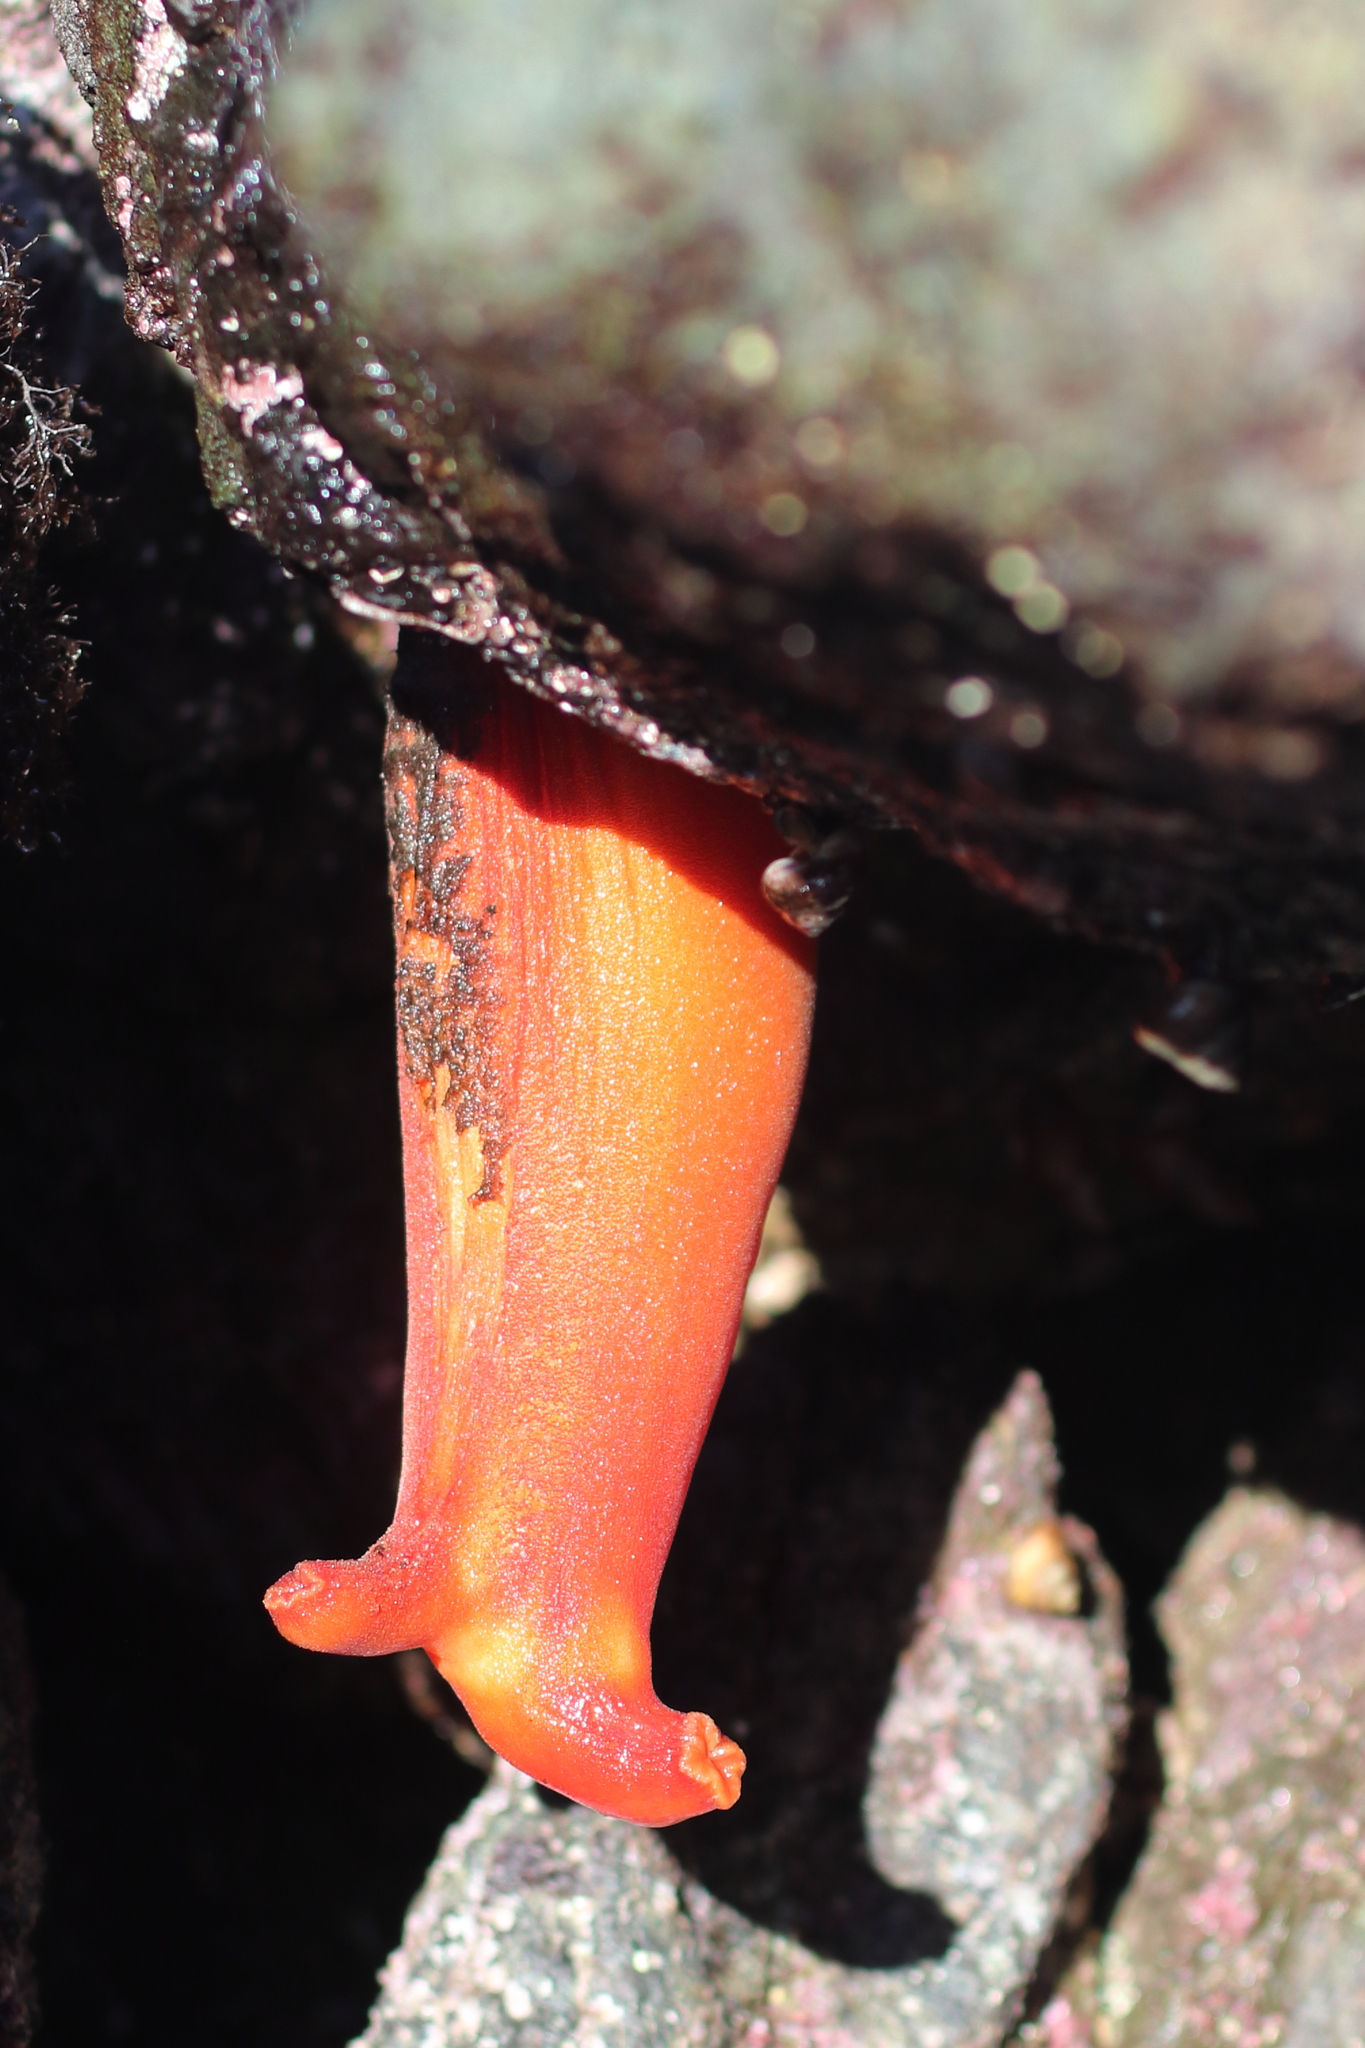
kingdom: Animalia
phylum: Chordata
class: Ascidiacea
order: Stolidobranchia
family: Pyuridae
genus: Halocynthia
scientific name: Halocynthia aurantium
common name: Sea peach
